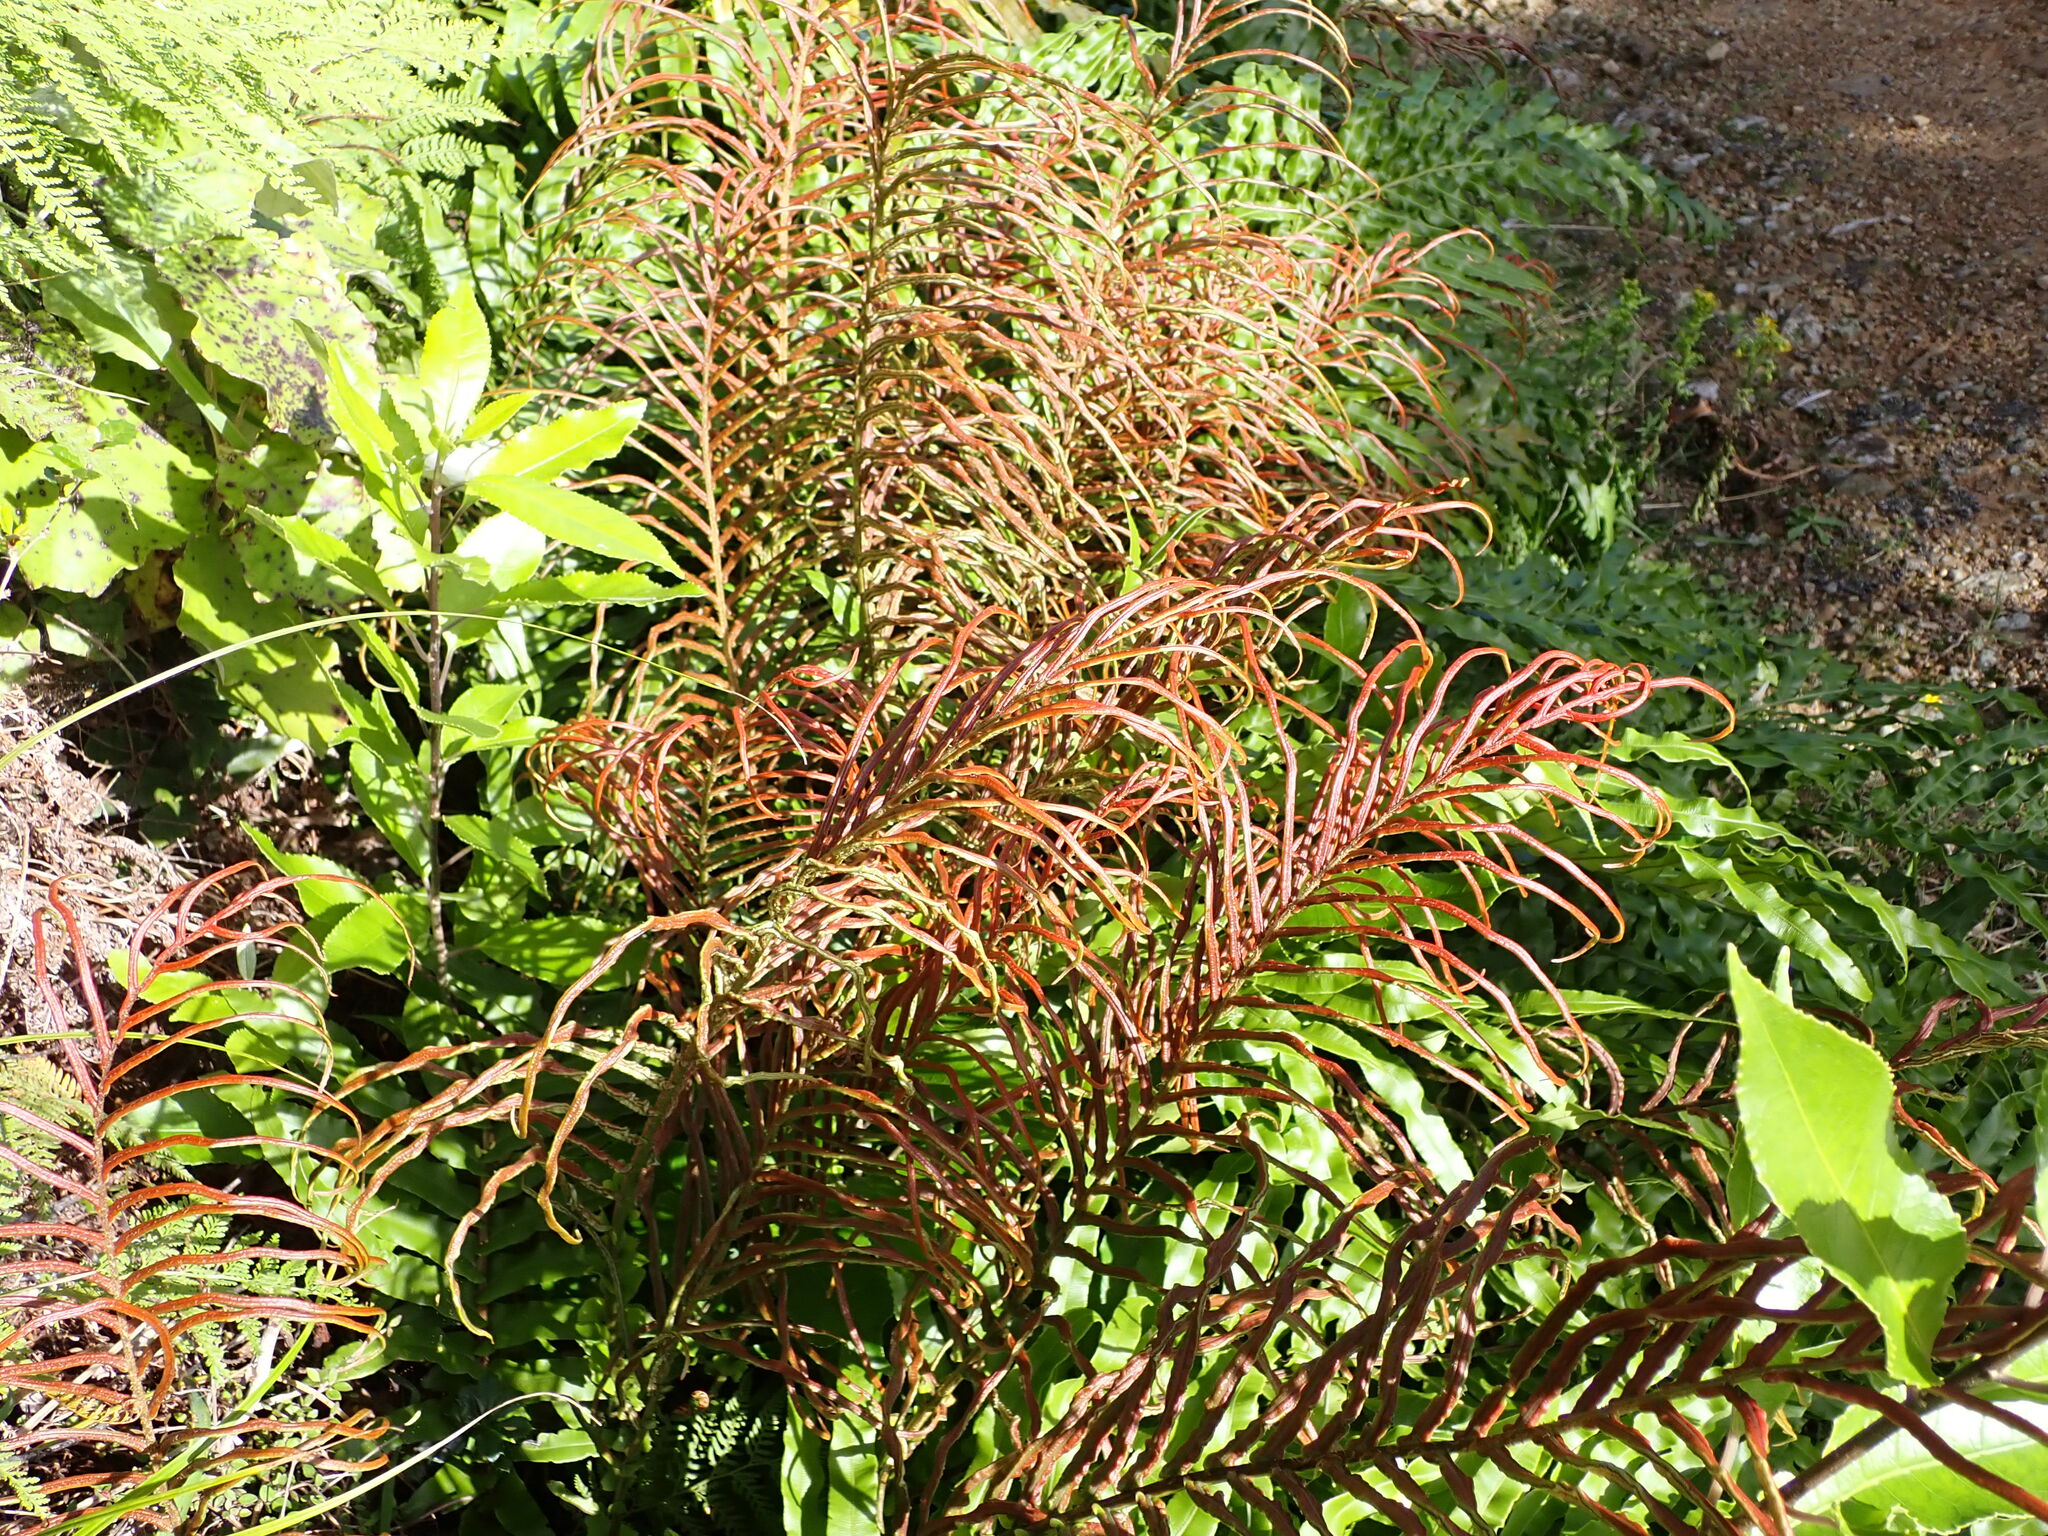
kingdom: Plantae
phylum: Tracheophyta
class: Polypodiopsida
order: Polypodiales
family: Blechnaceae
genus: Parablechnum
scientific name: Parablechnum novae-zelandiae
